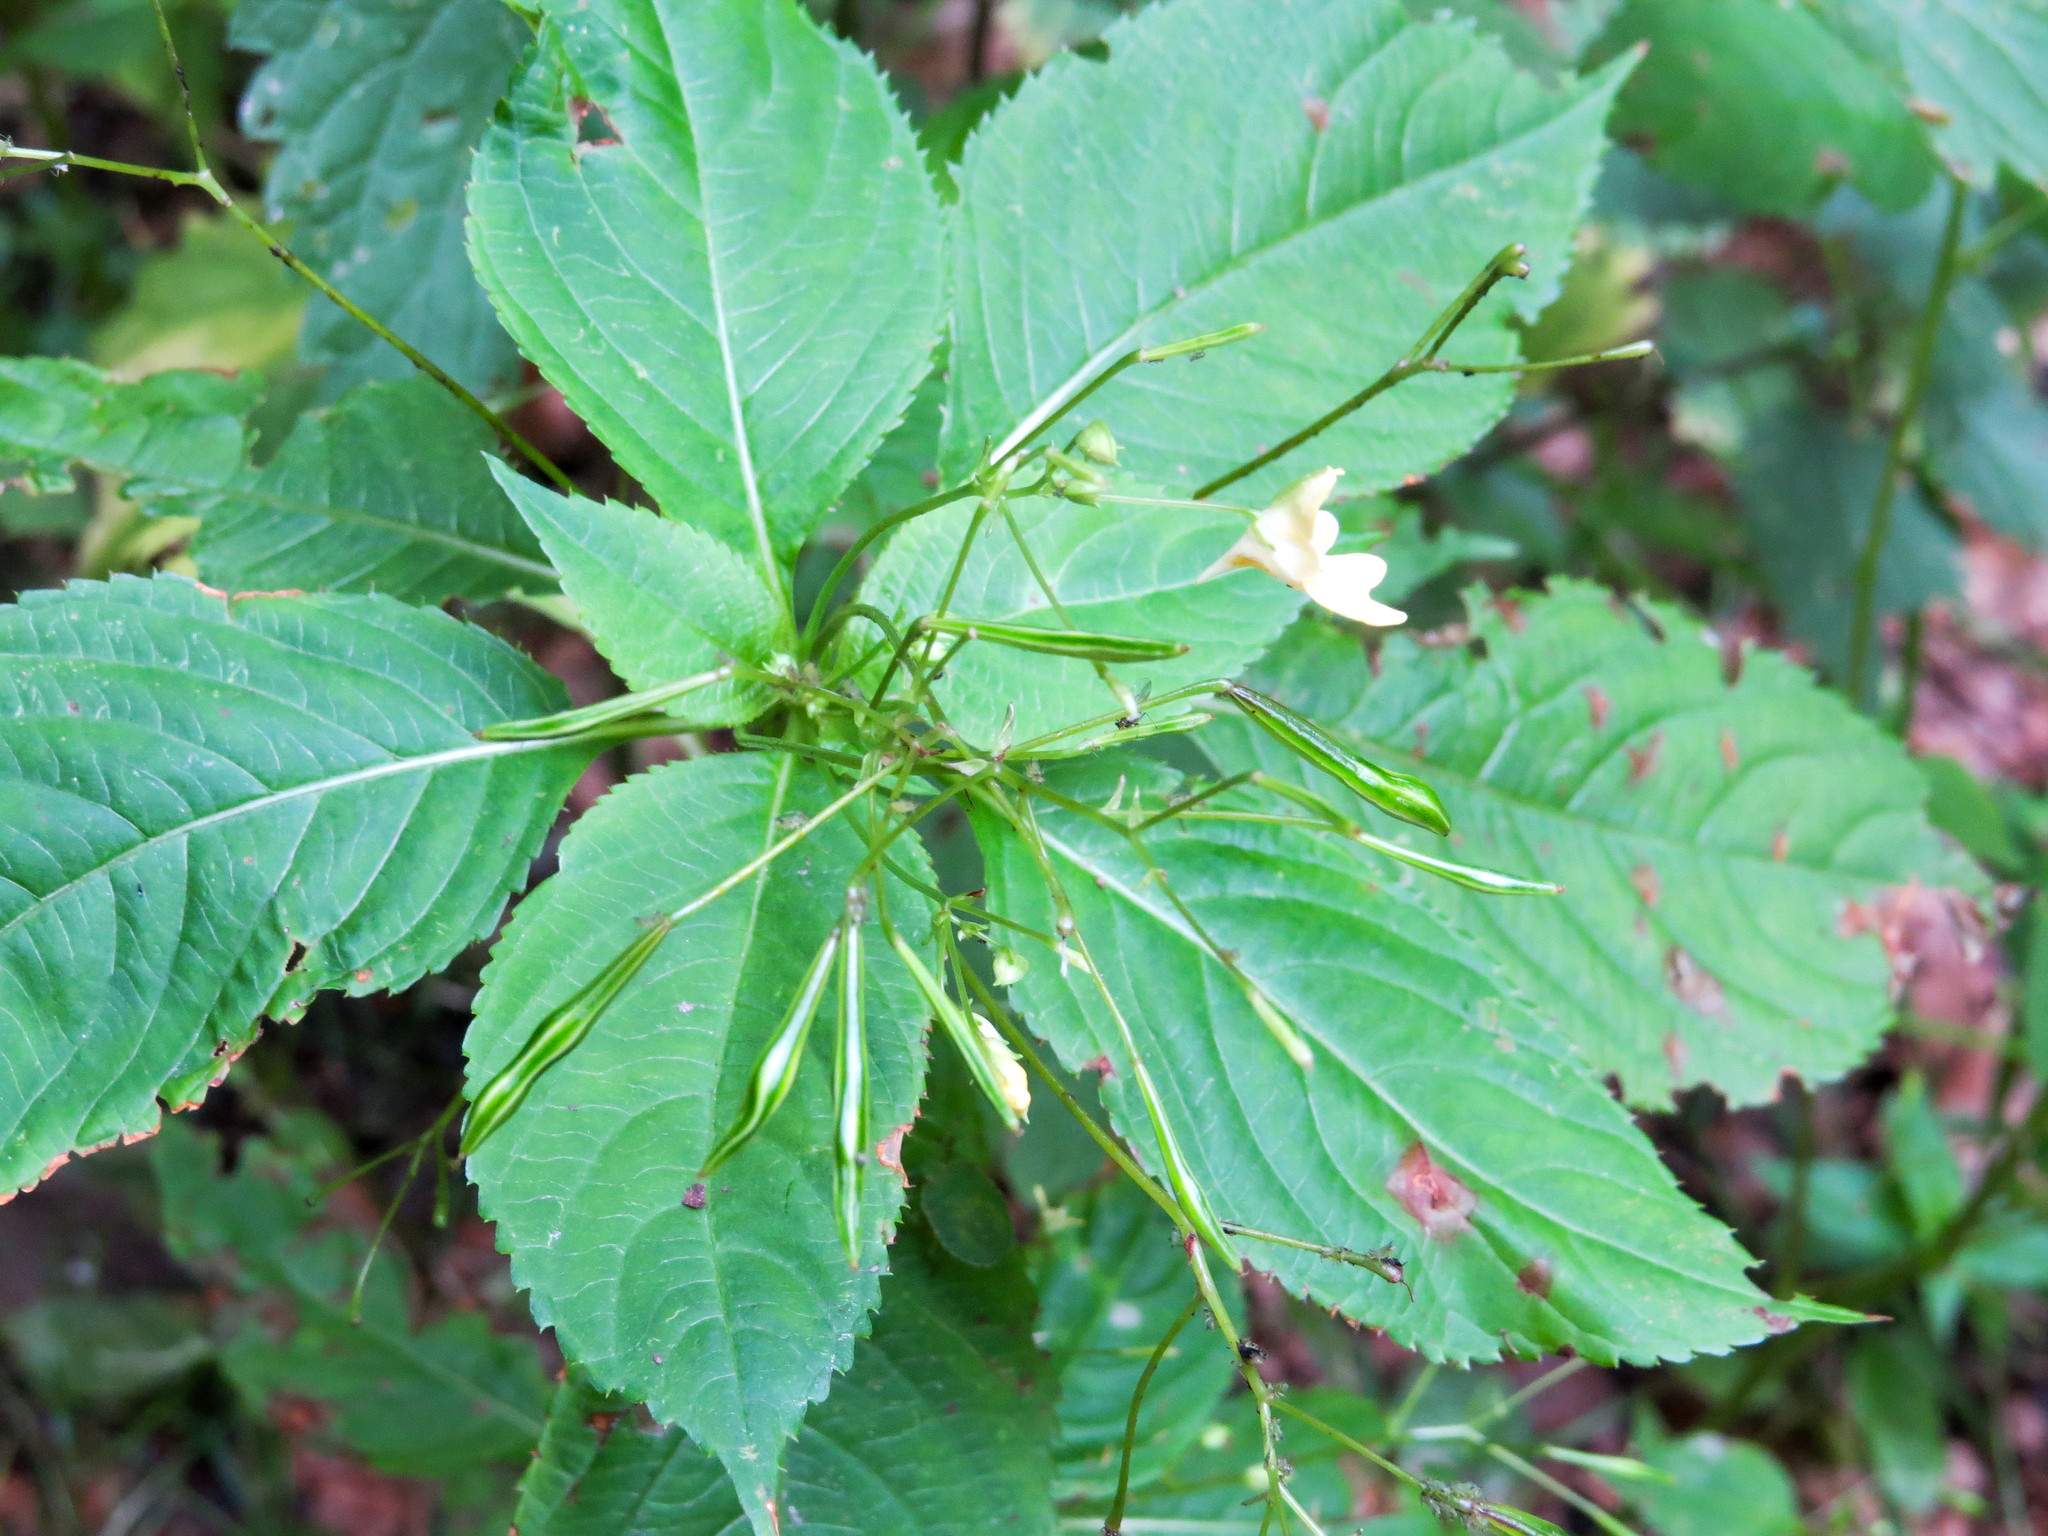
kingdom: Plantae
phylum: Tracheophyta
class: Magnoliopsida
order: Ericales
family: Balsaminaceae
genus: Impatiens
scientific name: Impatiens parviflora
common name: Small balsam
